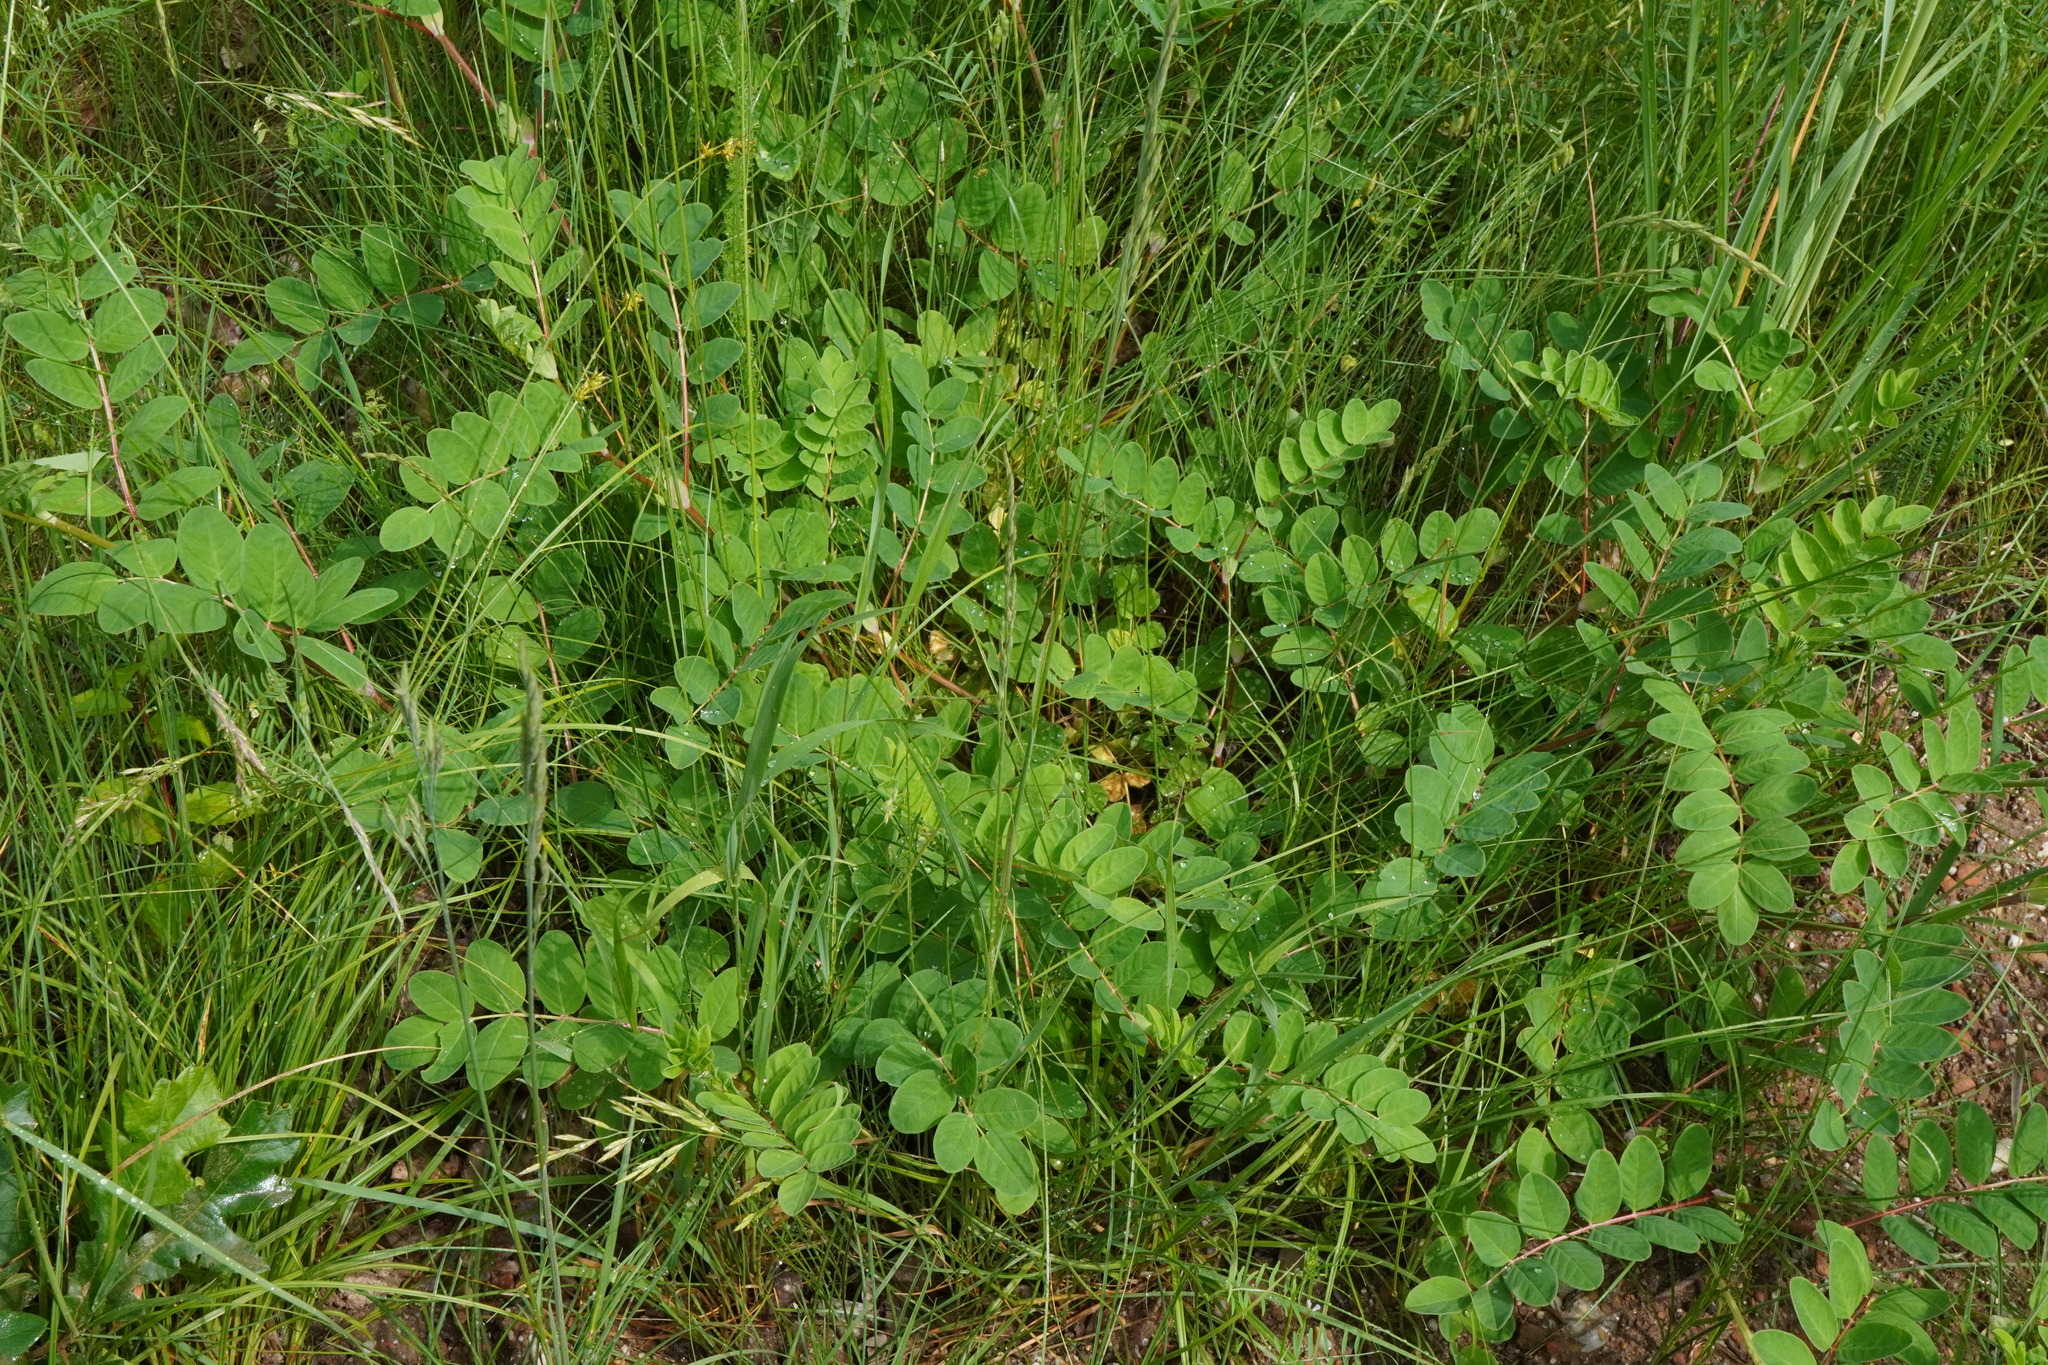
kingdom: Plantae
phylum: Tracheophyta
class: Magnoliopsida
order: Fabales
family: Fabaceae
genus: Astragalus
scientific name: Astragalus glycyphyllos
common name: Wild liquorice
